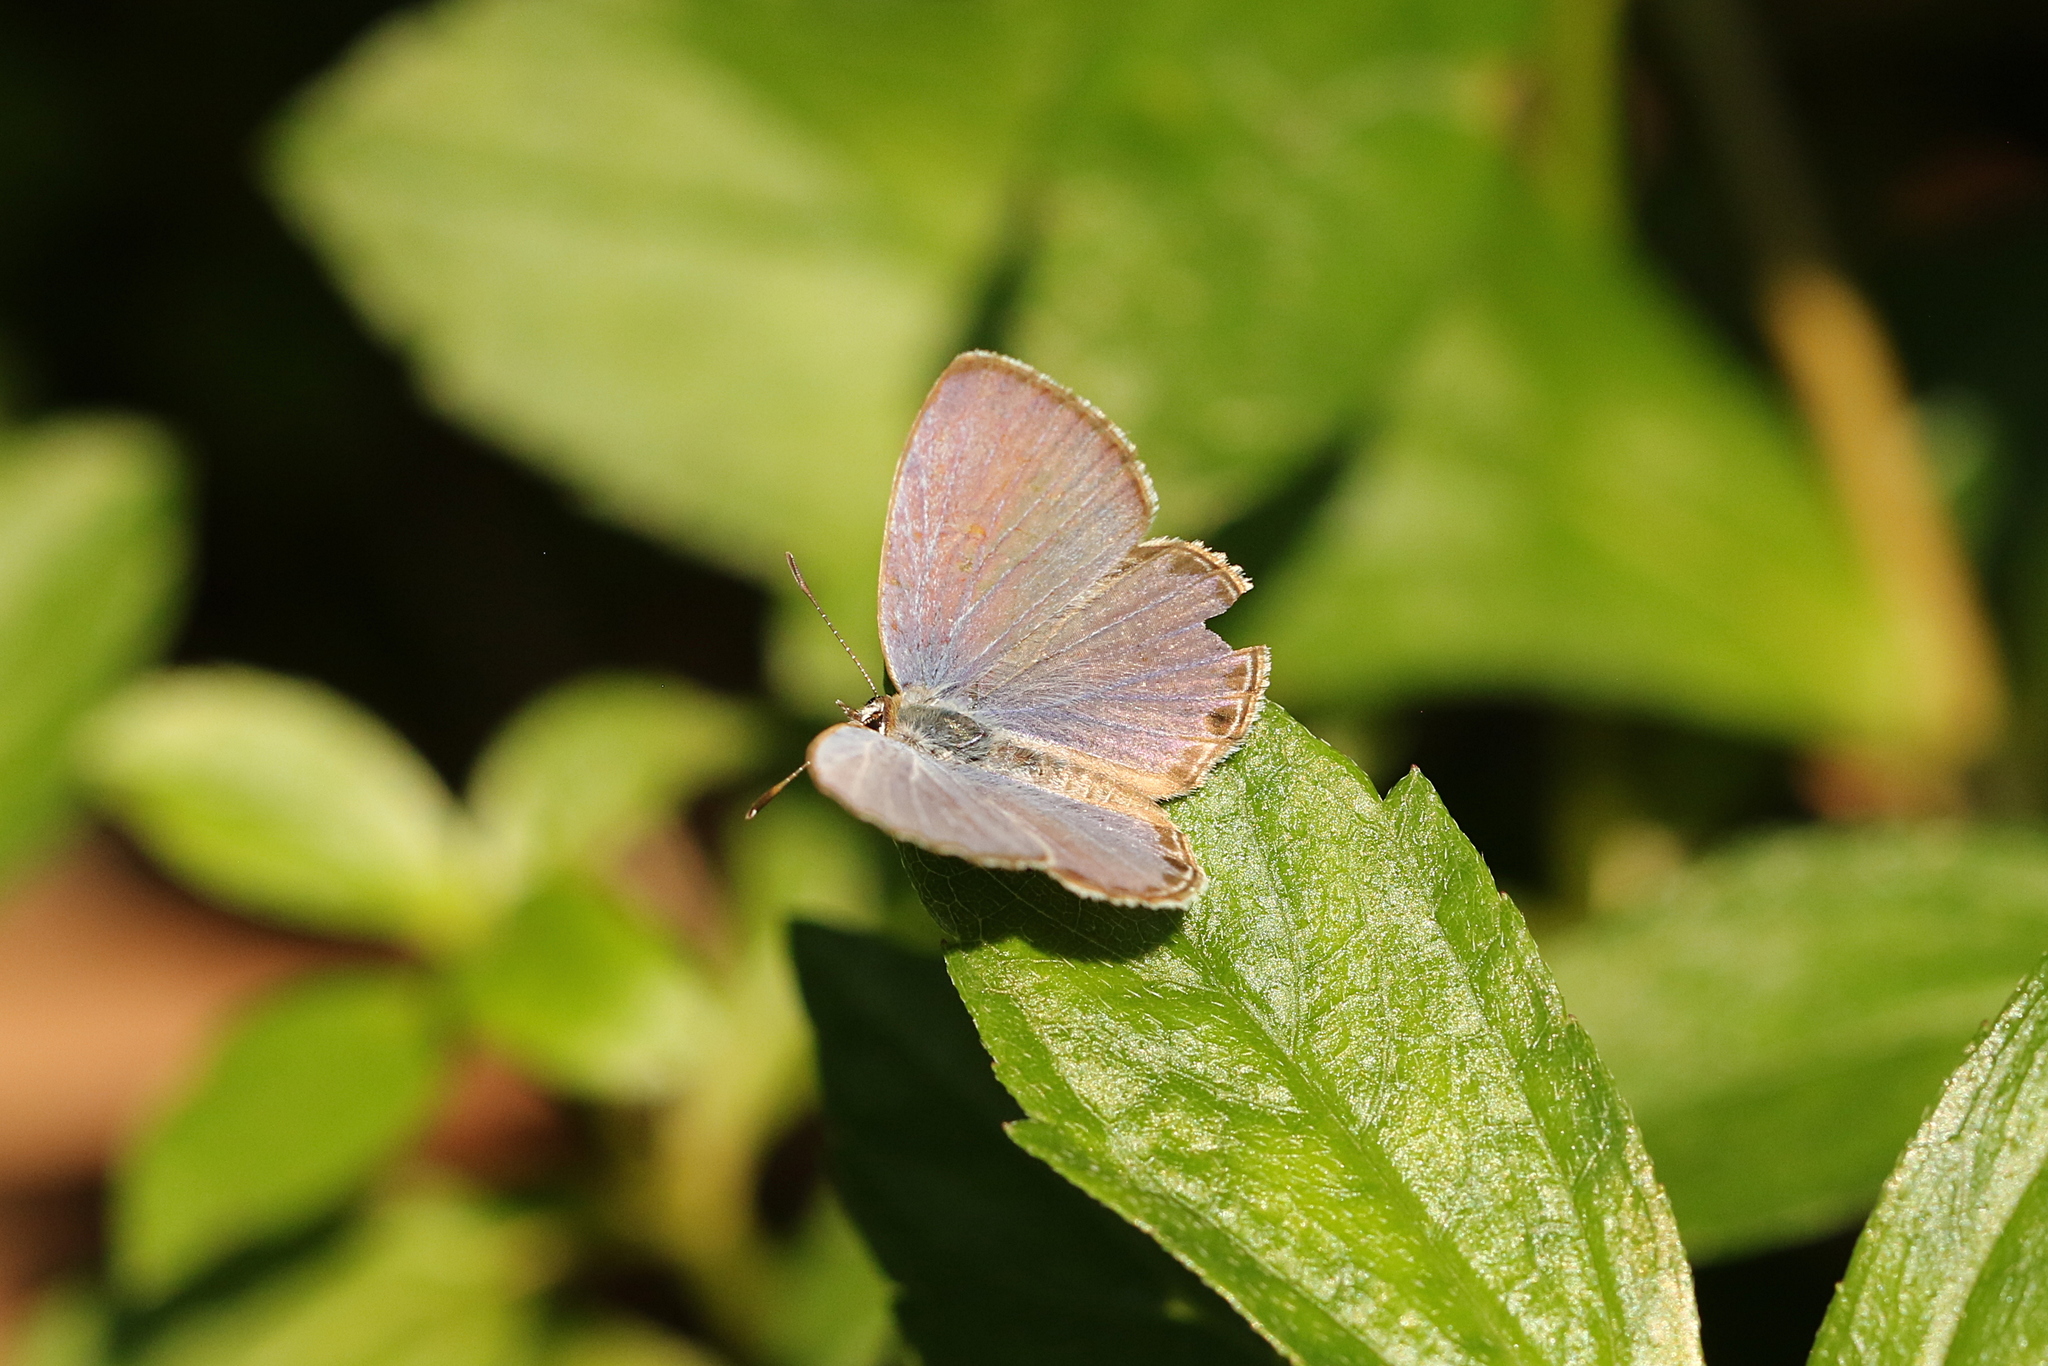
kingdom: Animalia
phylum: Arthropoda
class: Insecta
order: Lepidoptera
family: Lycaenidae
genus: Chilades
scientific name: Chilades laius
